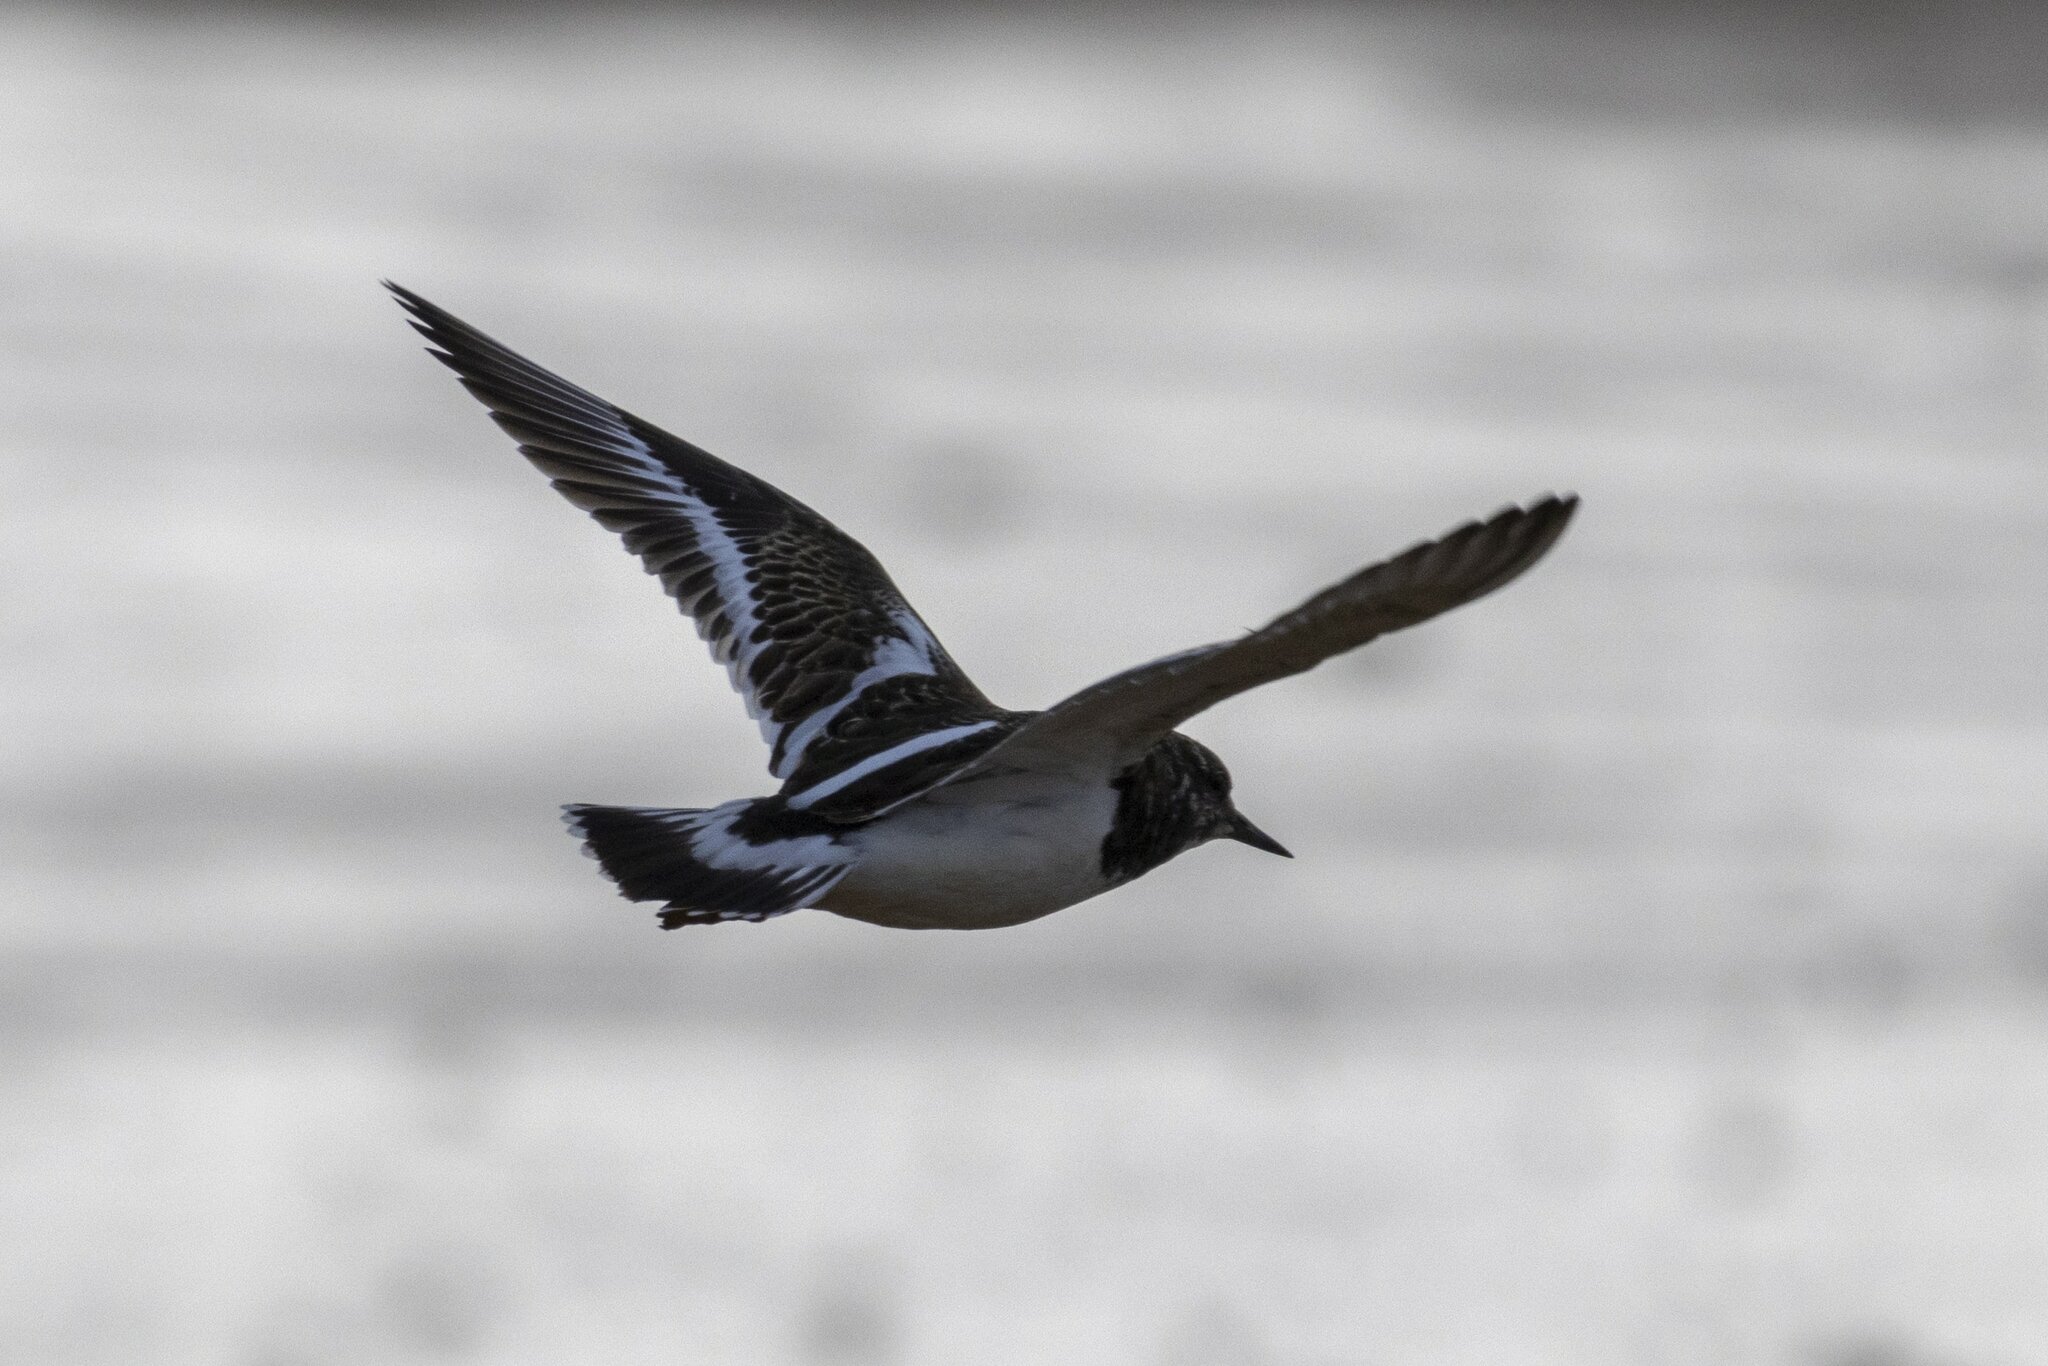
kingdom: Animalia
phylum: Chordata
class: Aves
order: Charadriiformes
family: Scolopacidae
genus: Arenaria
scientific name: Arenaria interpres
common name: Ruddy turnstone
